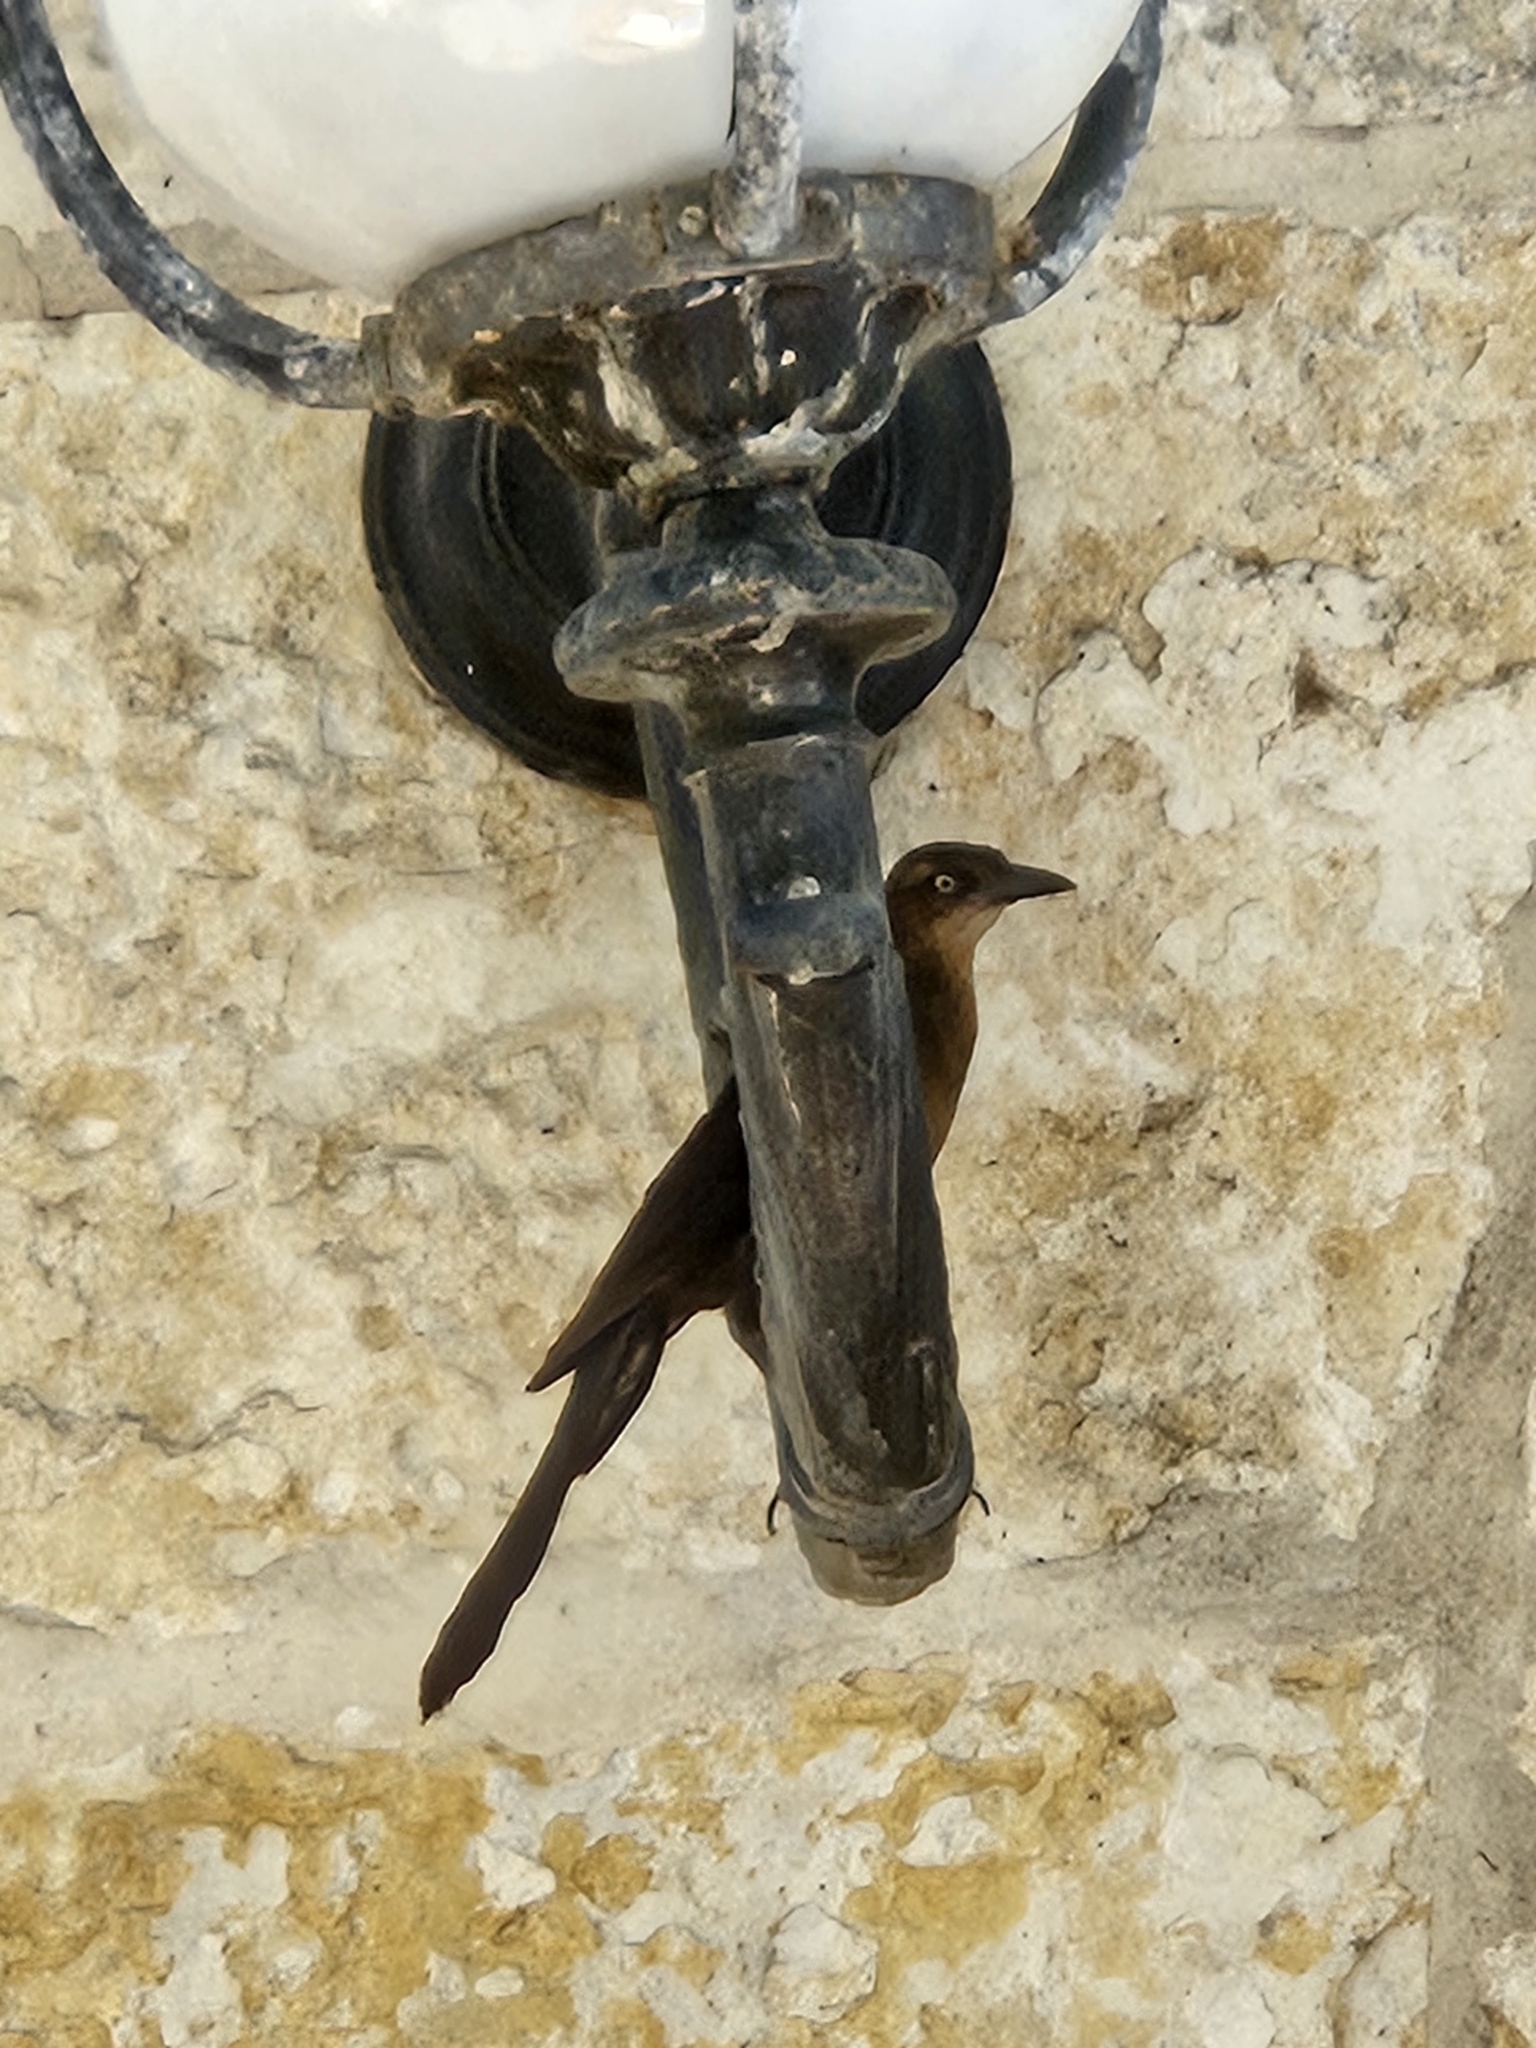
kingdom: Animalia
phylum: Chordata
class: Aves
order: Passeriformes
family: Icteridae
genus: Quiscalus
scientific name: Quiscalus mexicanus
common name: Great-tailed grackle
